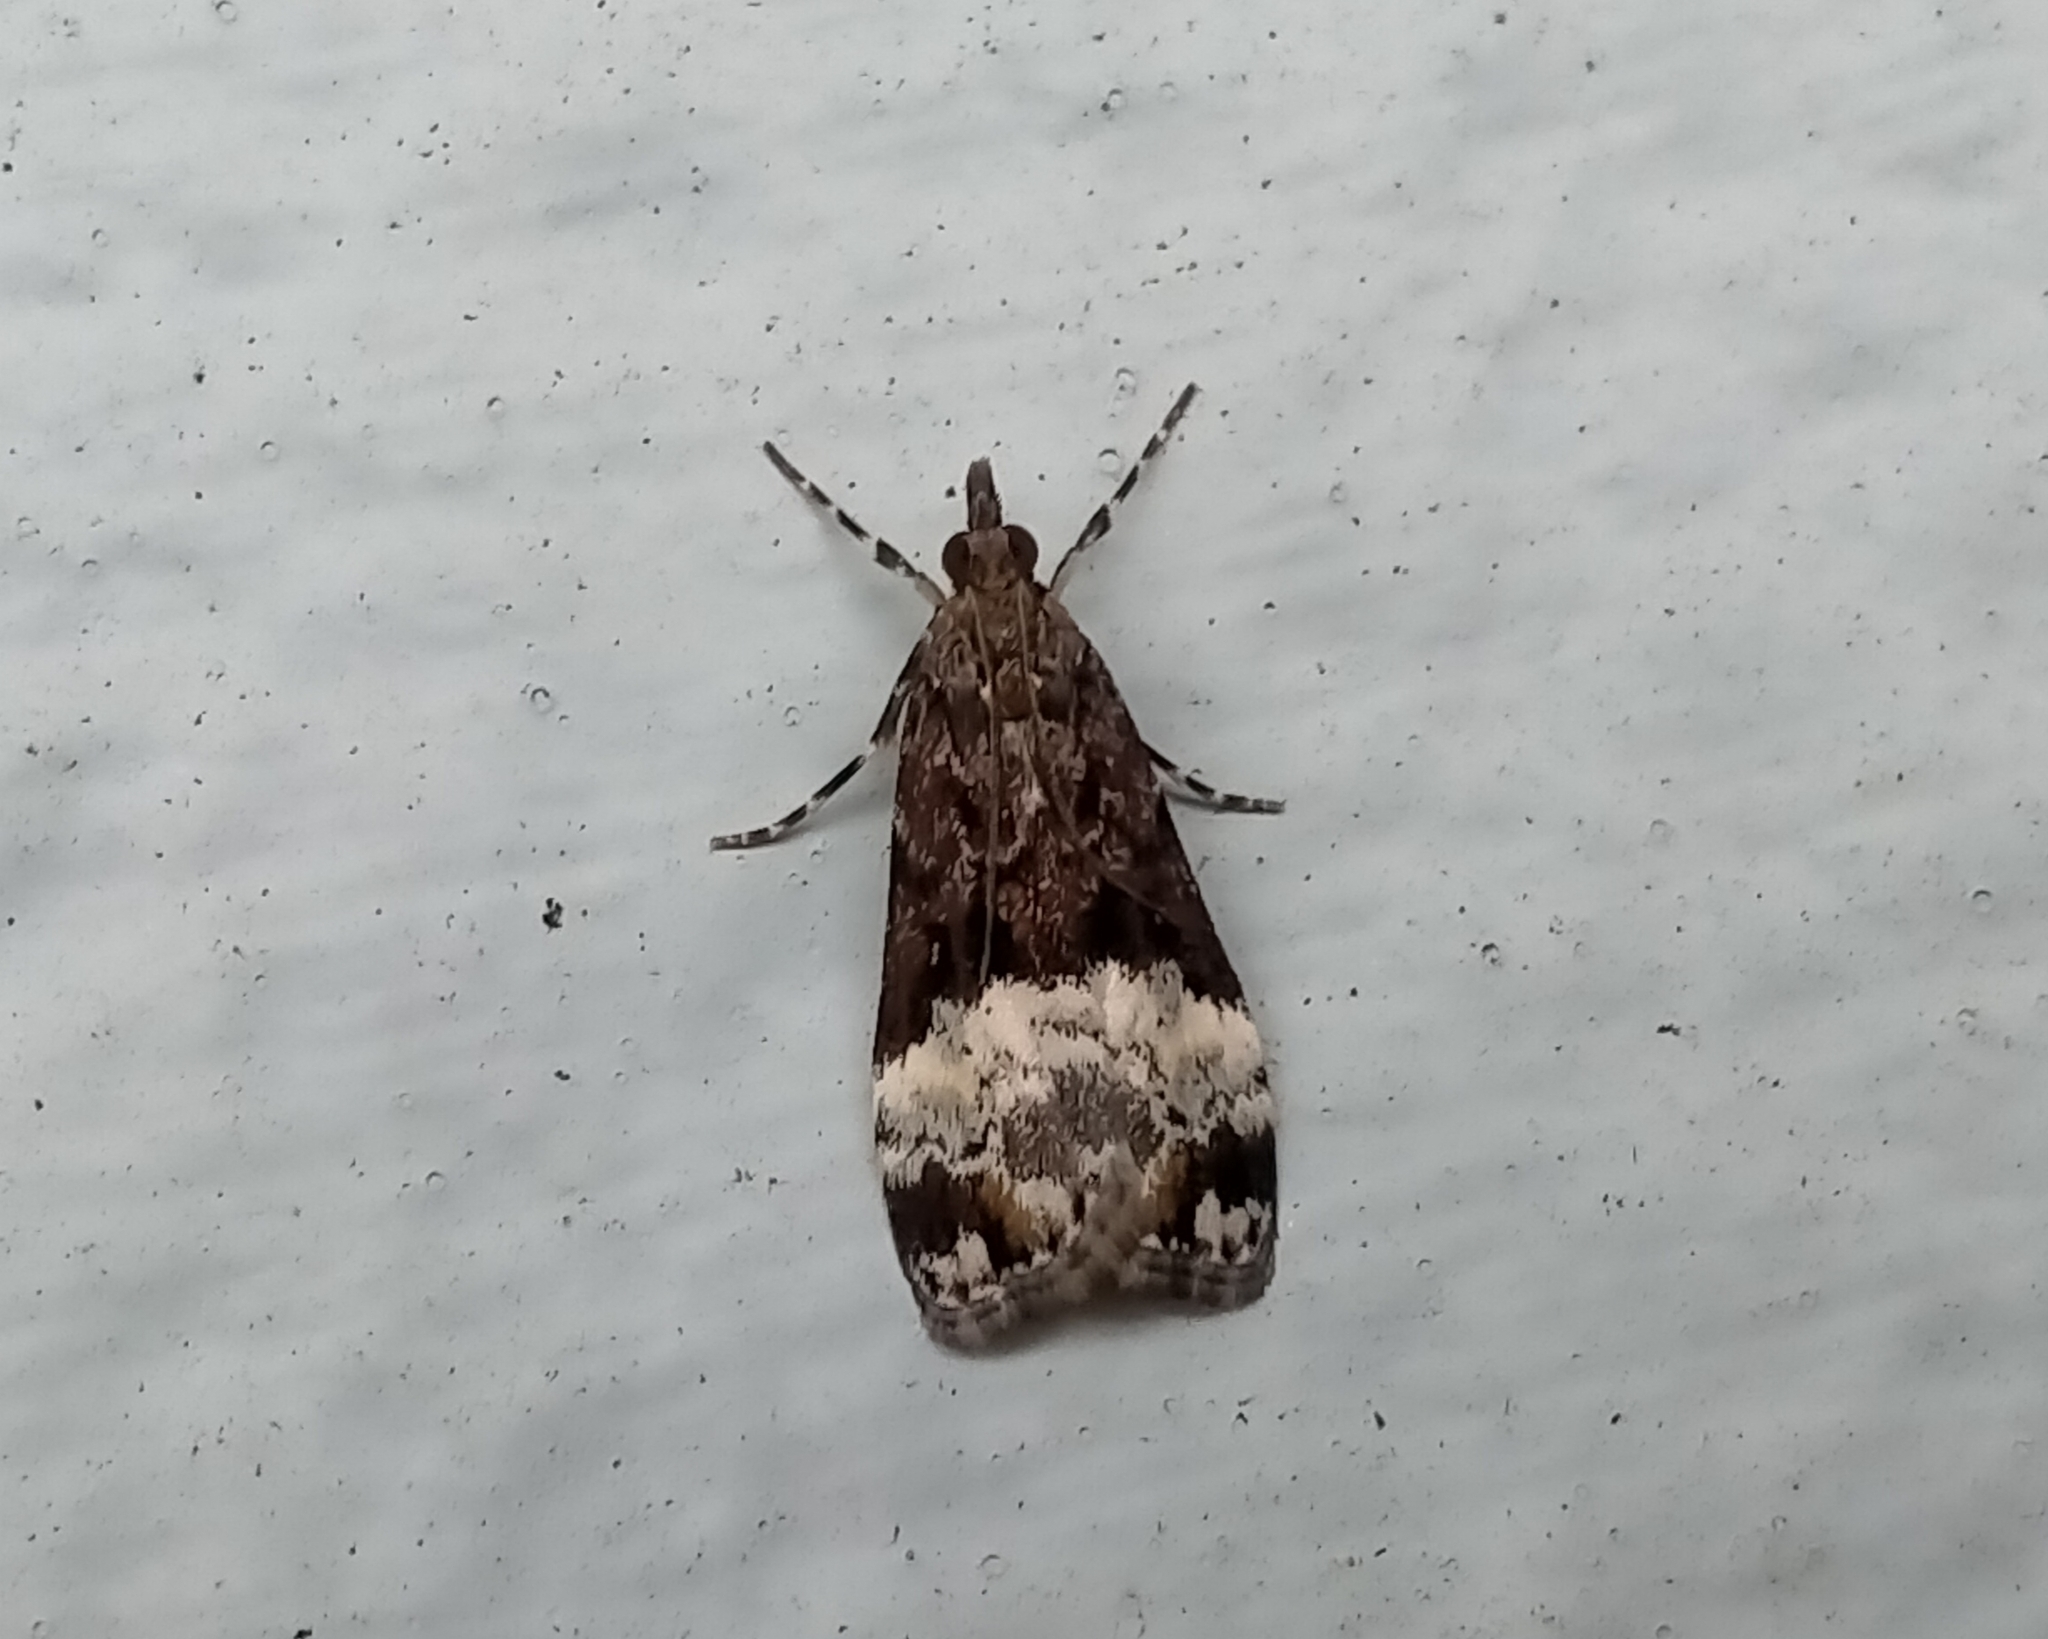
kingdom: Animalia
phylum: Arthropoda
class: Insecta
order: Lepidoptera
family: Crambidae
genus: Scoparia
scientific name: Scoparia minusculalis
